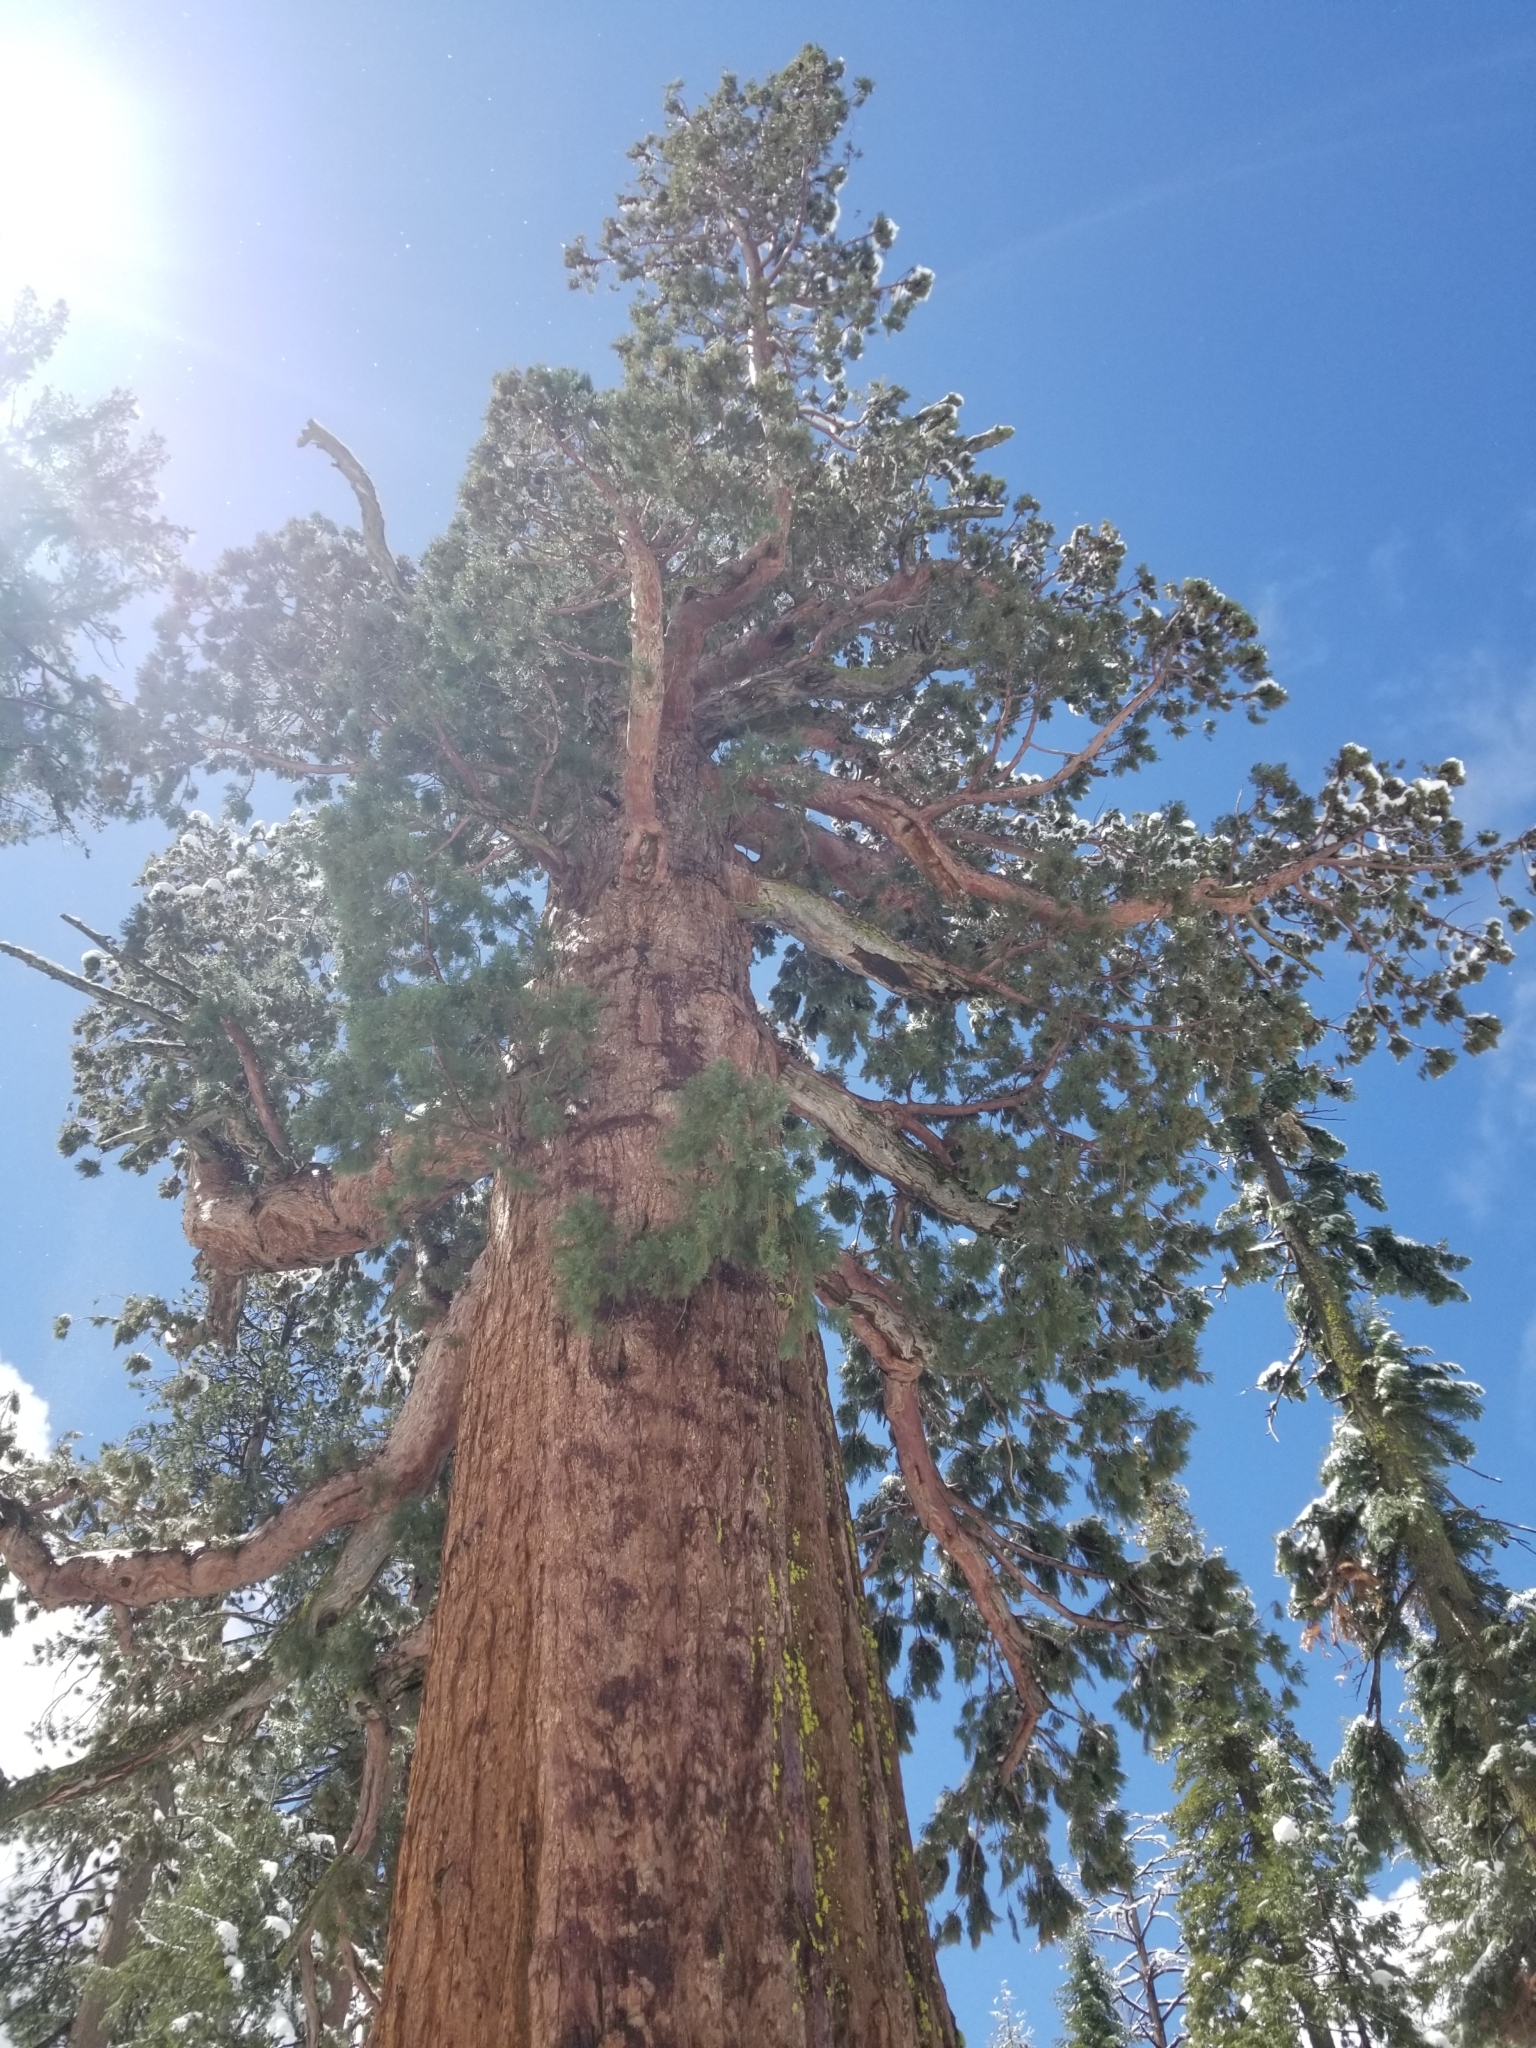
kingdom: Plantae
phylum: Tracheophyta
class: Pinopsida
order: Pinales
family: Cupressaceae
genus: Sequoiadendron
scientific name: Sequoiadendron giganteum
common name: Wellingtonia
